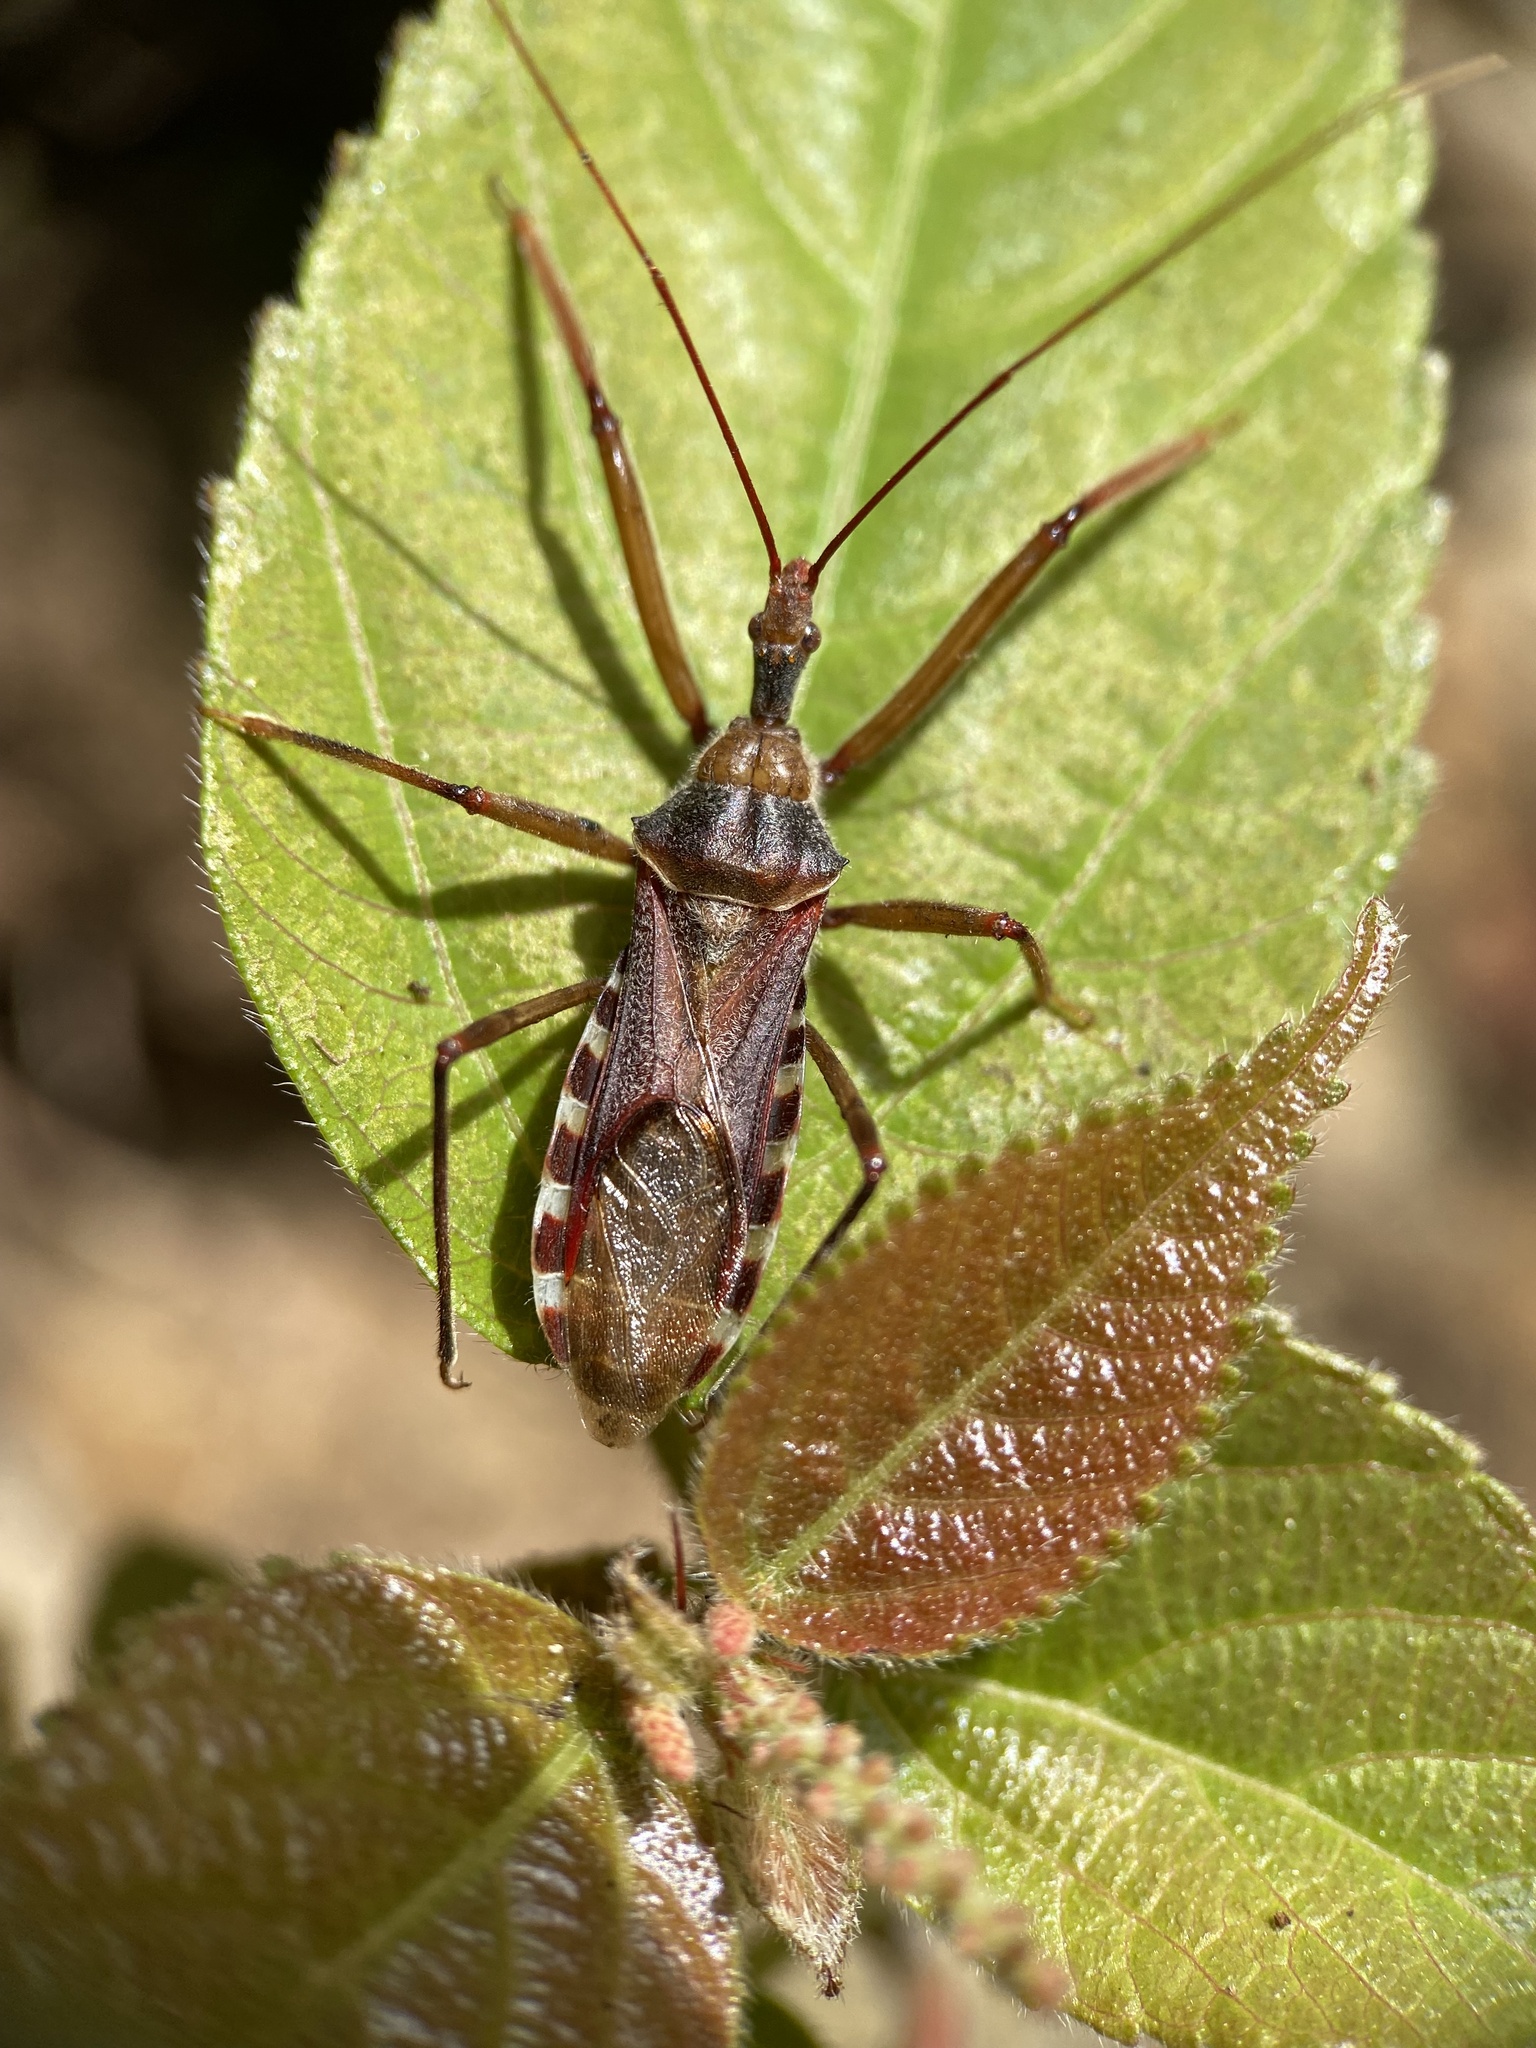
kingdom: Animalia
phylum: Arthropoda
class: Insecta
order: Hemiptera
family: Reduviidae
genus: Zelus
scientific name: Zelus sulcicollis
